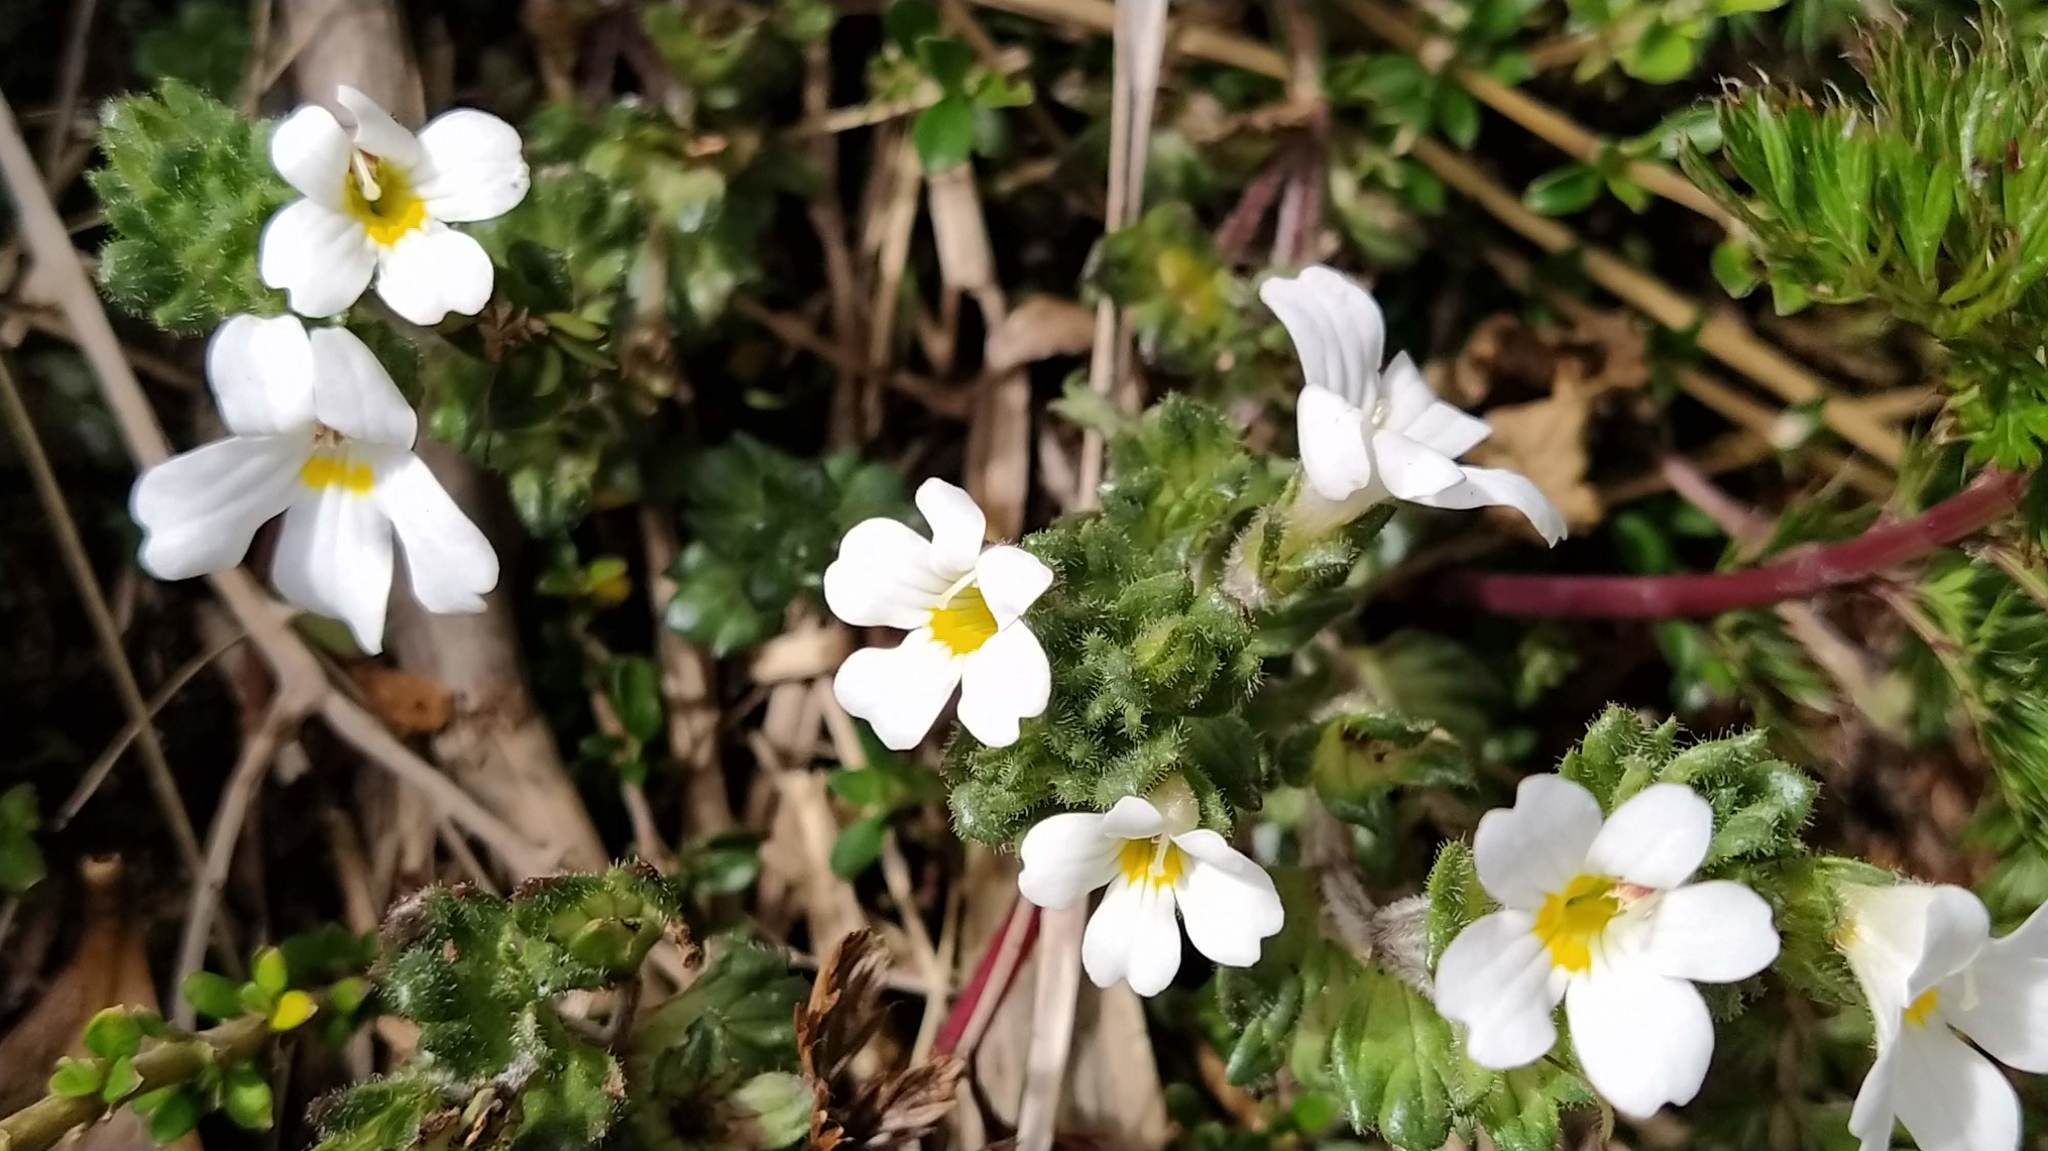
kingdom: Plantae
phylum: Tracheophyta
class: Magnoliopsida
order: Lamiales
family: Orobanchaceae
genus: Euphrasia
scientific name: Euphrasia petriei
